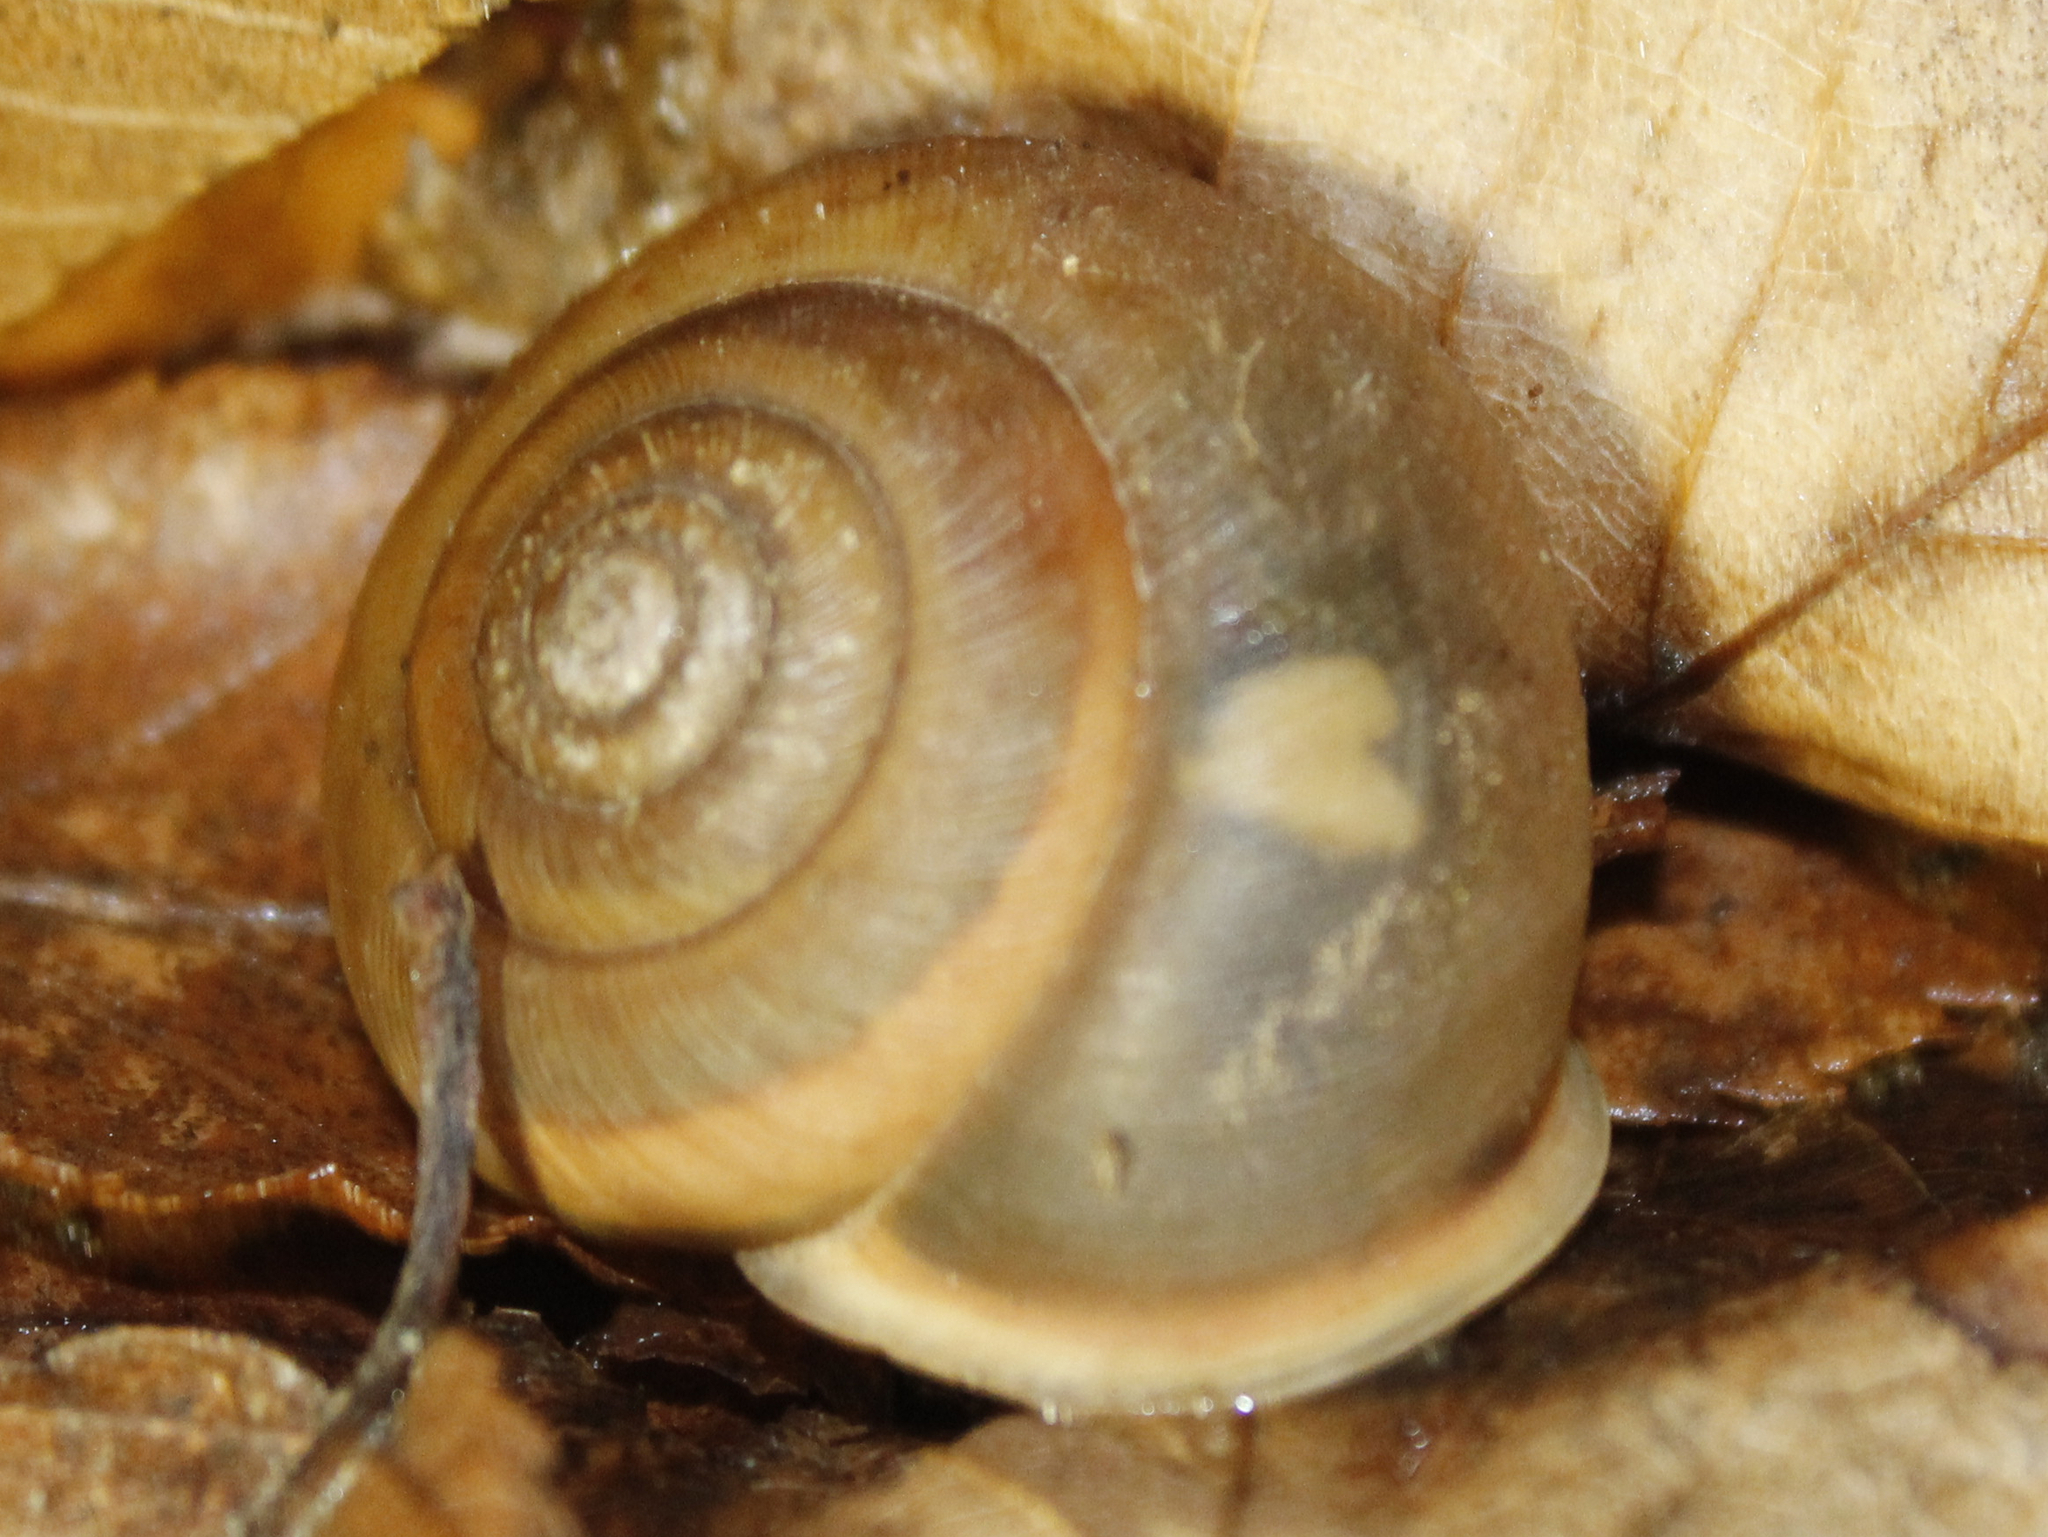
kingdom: Animalia
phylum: Mollusca
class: Gastropoda
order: Stylommatophora
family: Polygyridae
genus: Neohelix
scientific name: Neohelix albolabris
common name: Eastern whitelip
